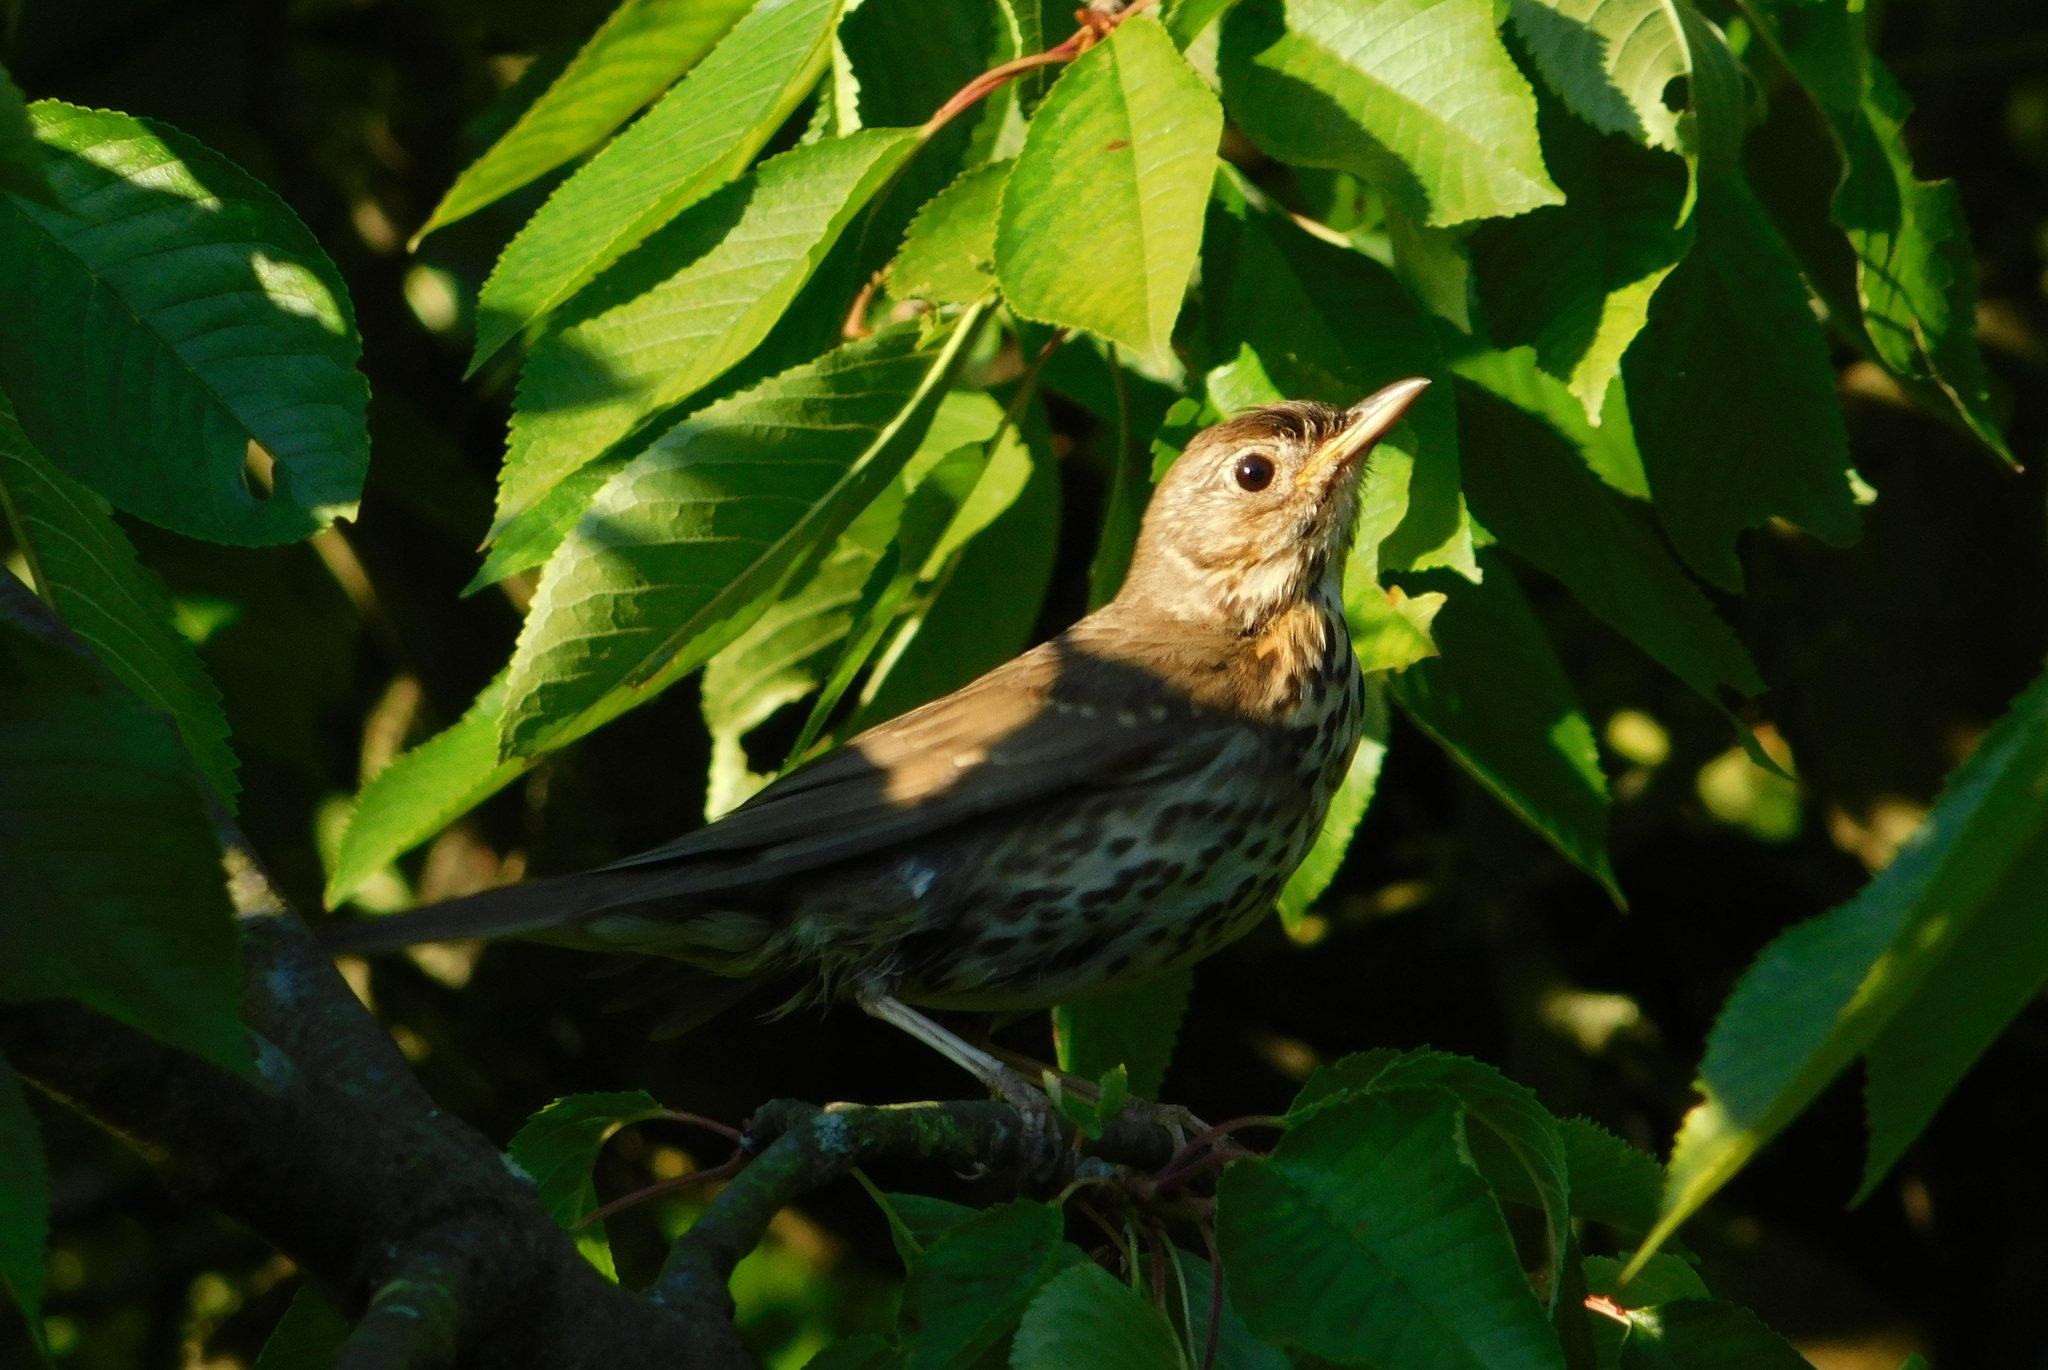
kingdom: Animalia
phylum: Chordata
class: Aves
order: Passeriformes
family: Turdidae
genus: Turdus
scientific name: Turdus philomelos
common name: Song thrush
